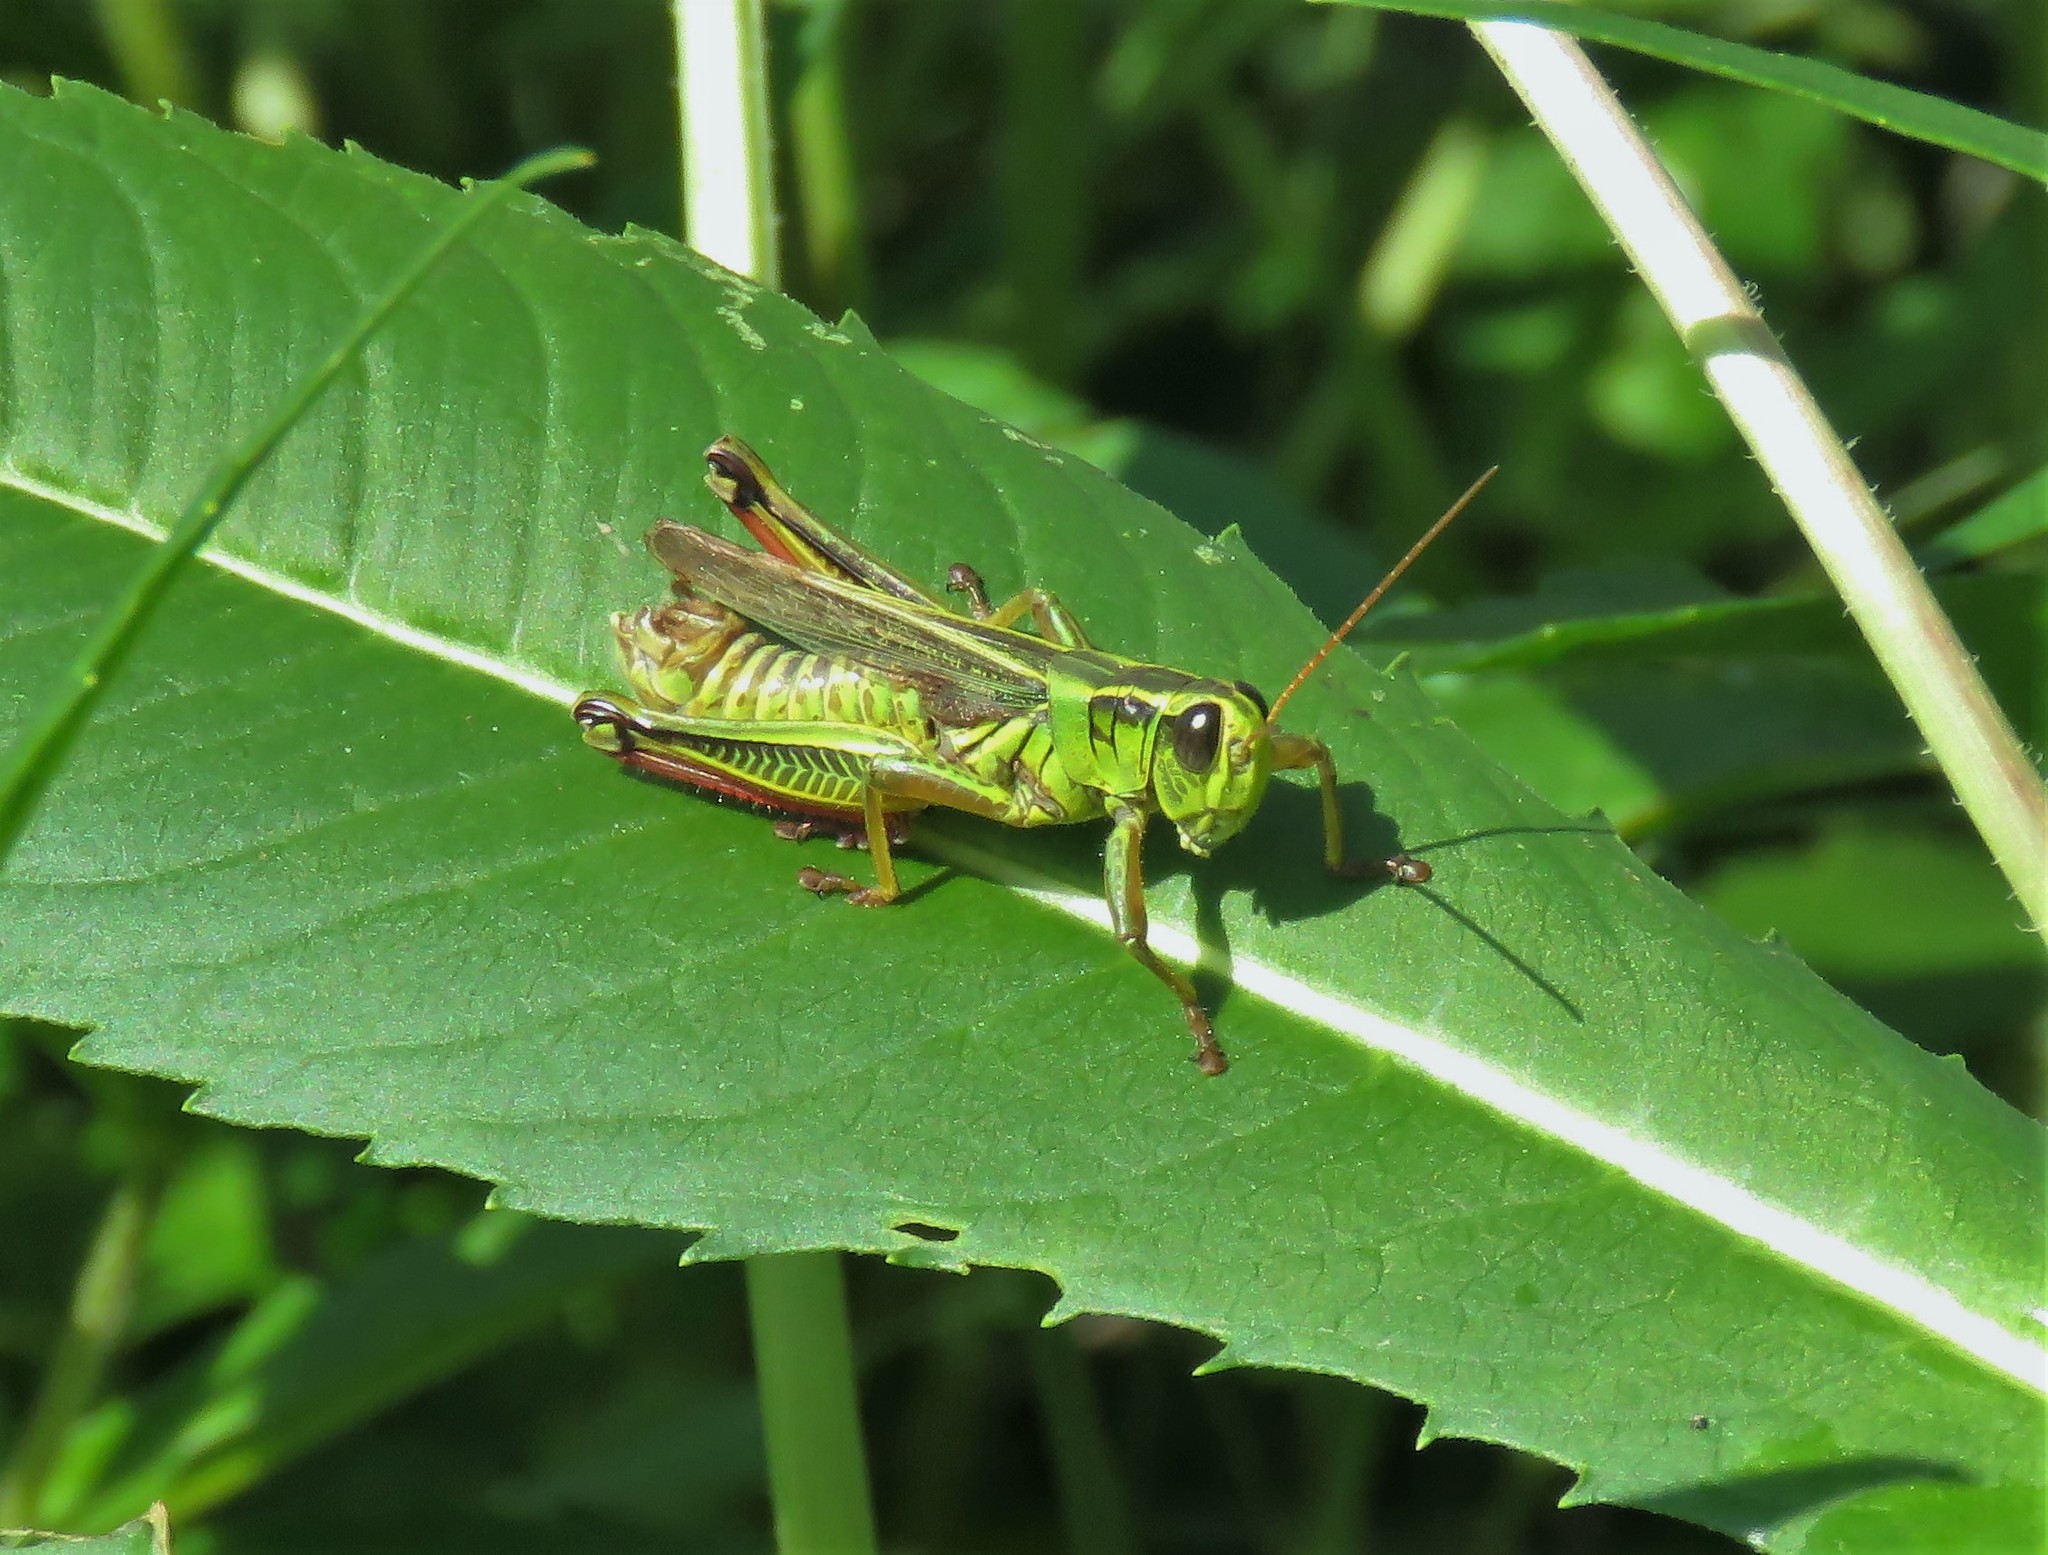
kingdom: Animalia
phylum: Arthropoda
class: Insecta
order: Orthoptera
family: Acrididae
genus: Melanoplus
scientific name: Melanoplus bivittatus
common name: Two-striped grasshopper
